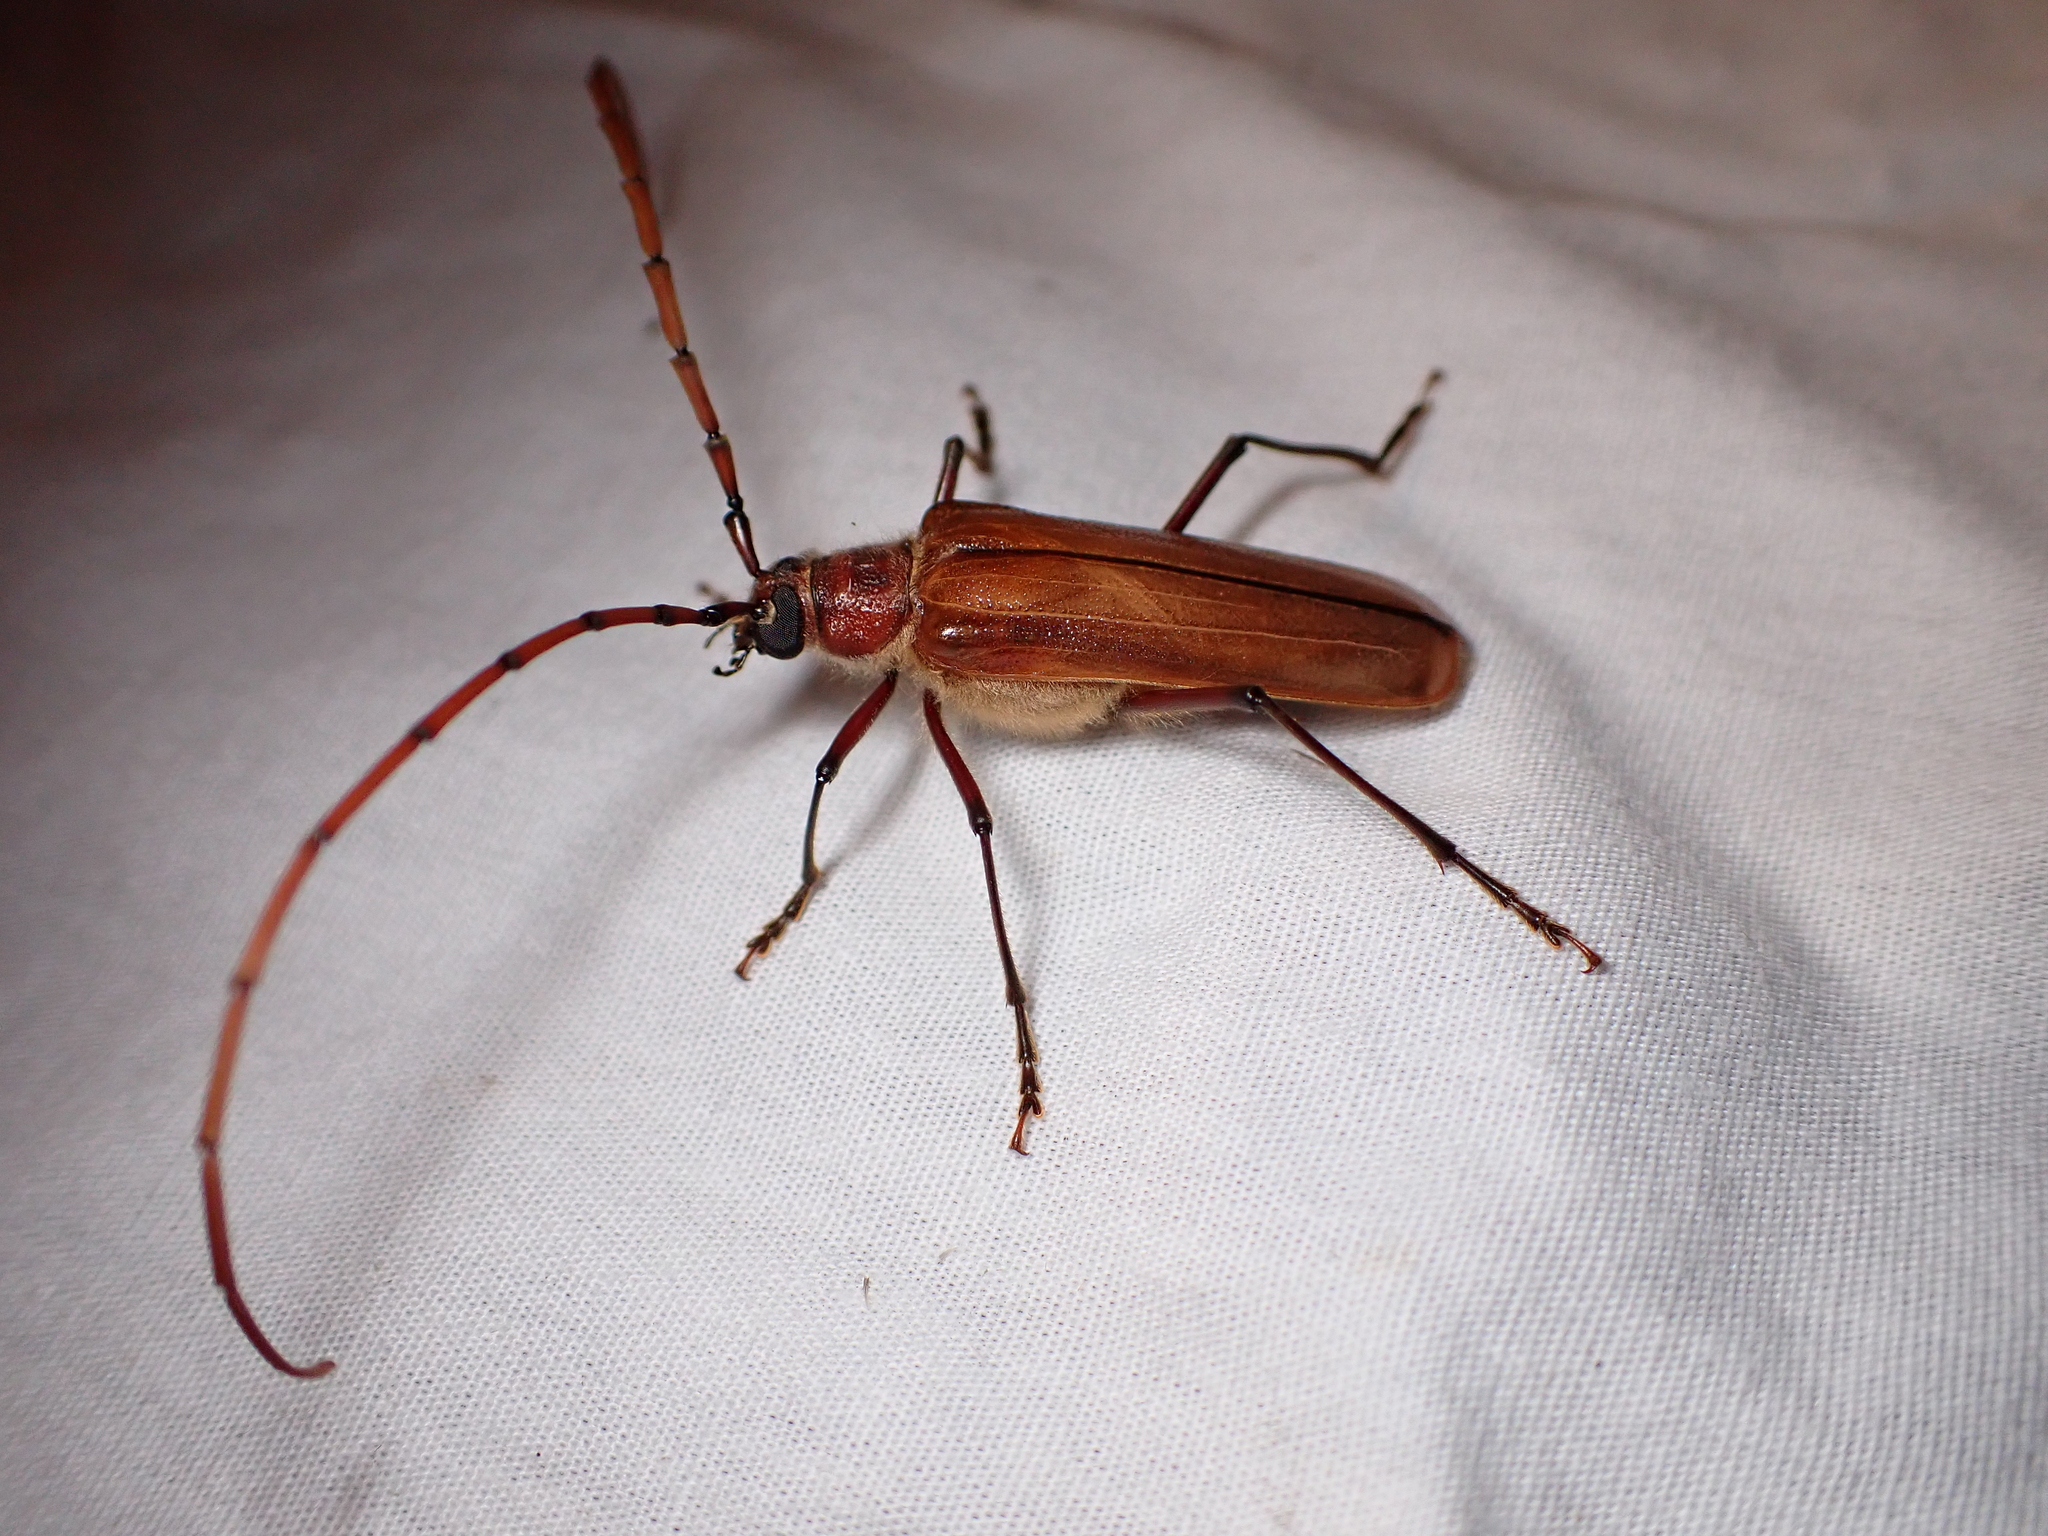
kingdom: Animalia
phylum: Arthropoda
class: Insecta
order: Coleoptera
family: Cerambycidae
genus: Ochrocydus
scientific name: Ochrocydus huttoni
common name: Kanuka longhorn
